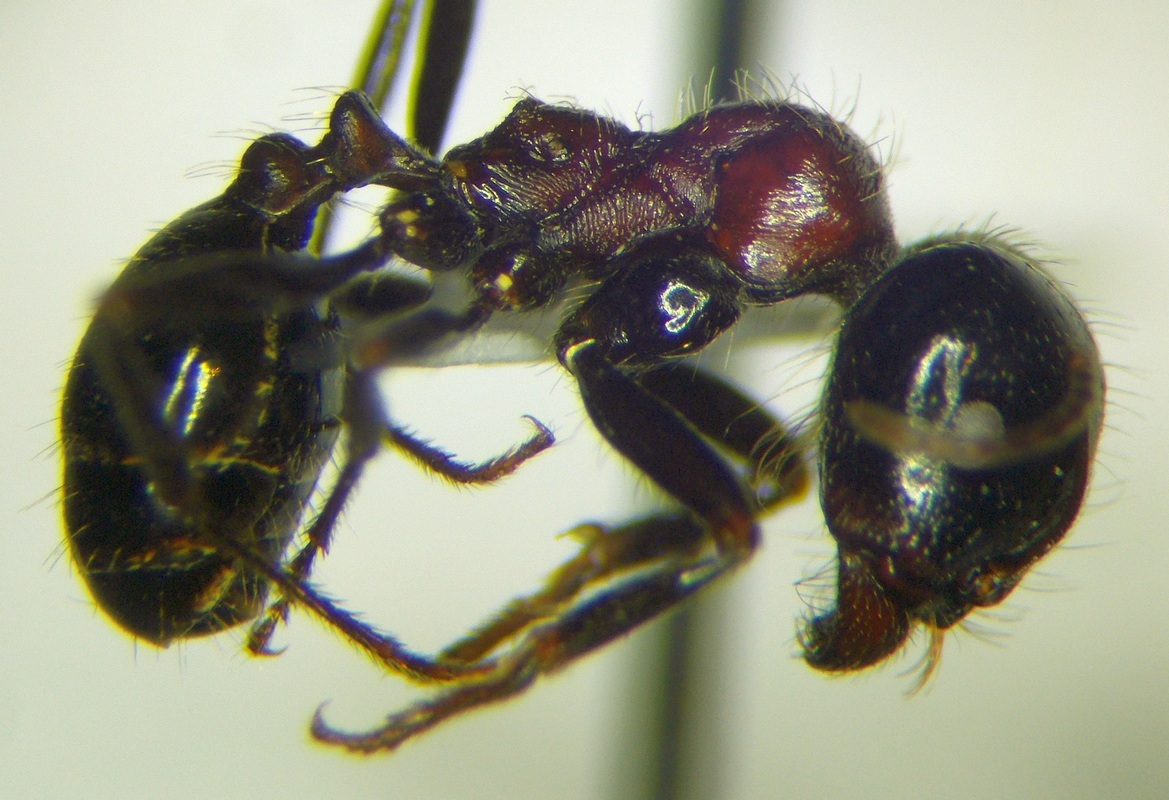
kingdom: Animalia
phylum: Arthropoda
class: Insecta
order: Hymenoptera
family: Formicidae
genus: Messor
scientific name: Messor denticulatus
